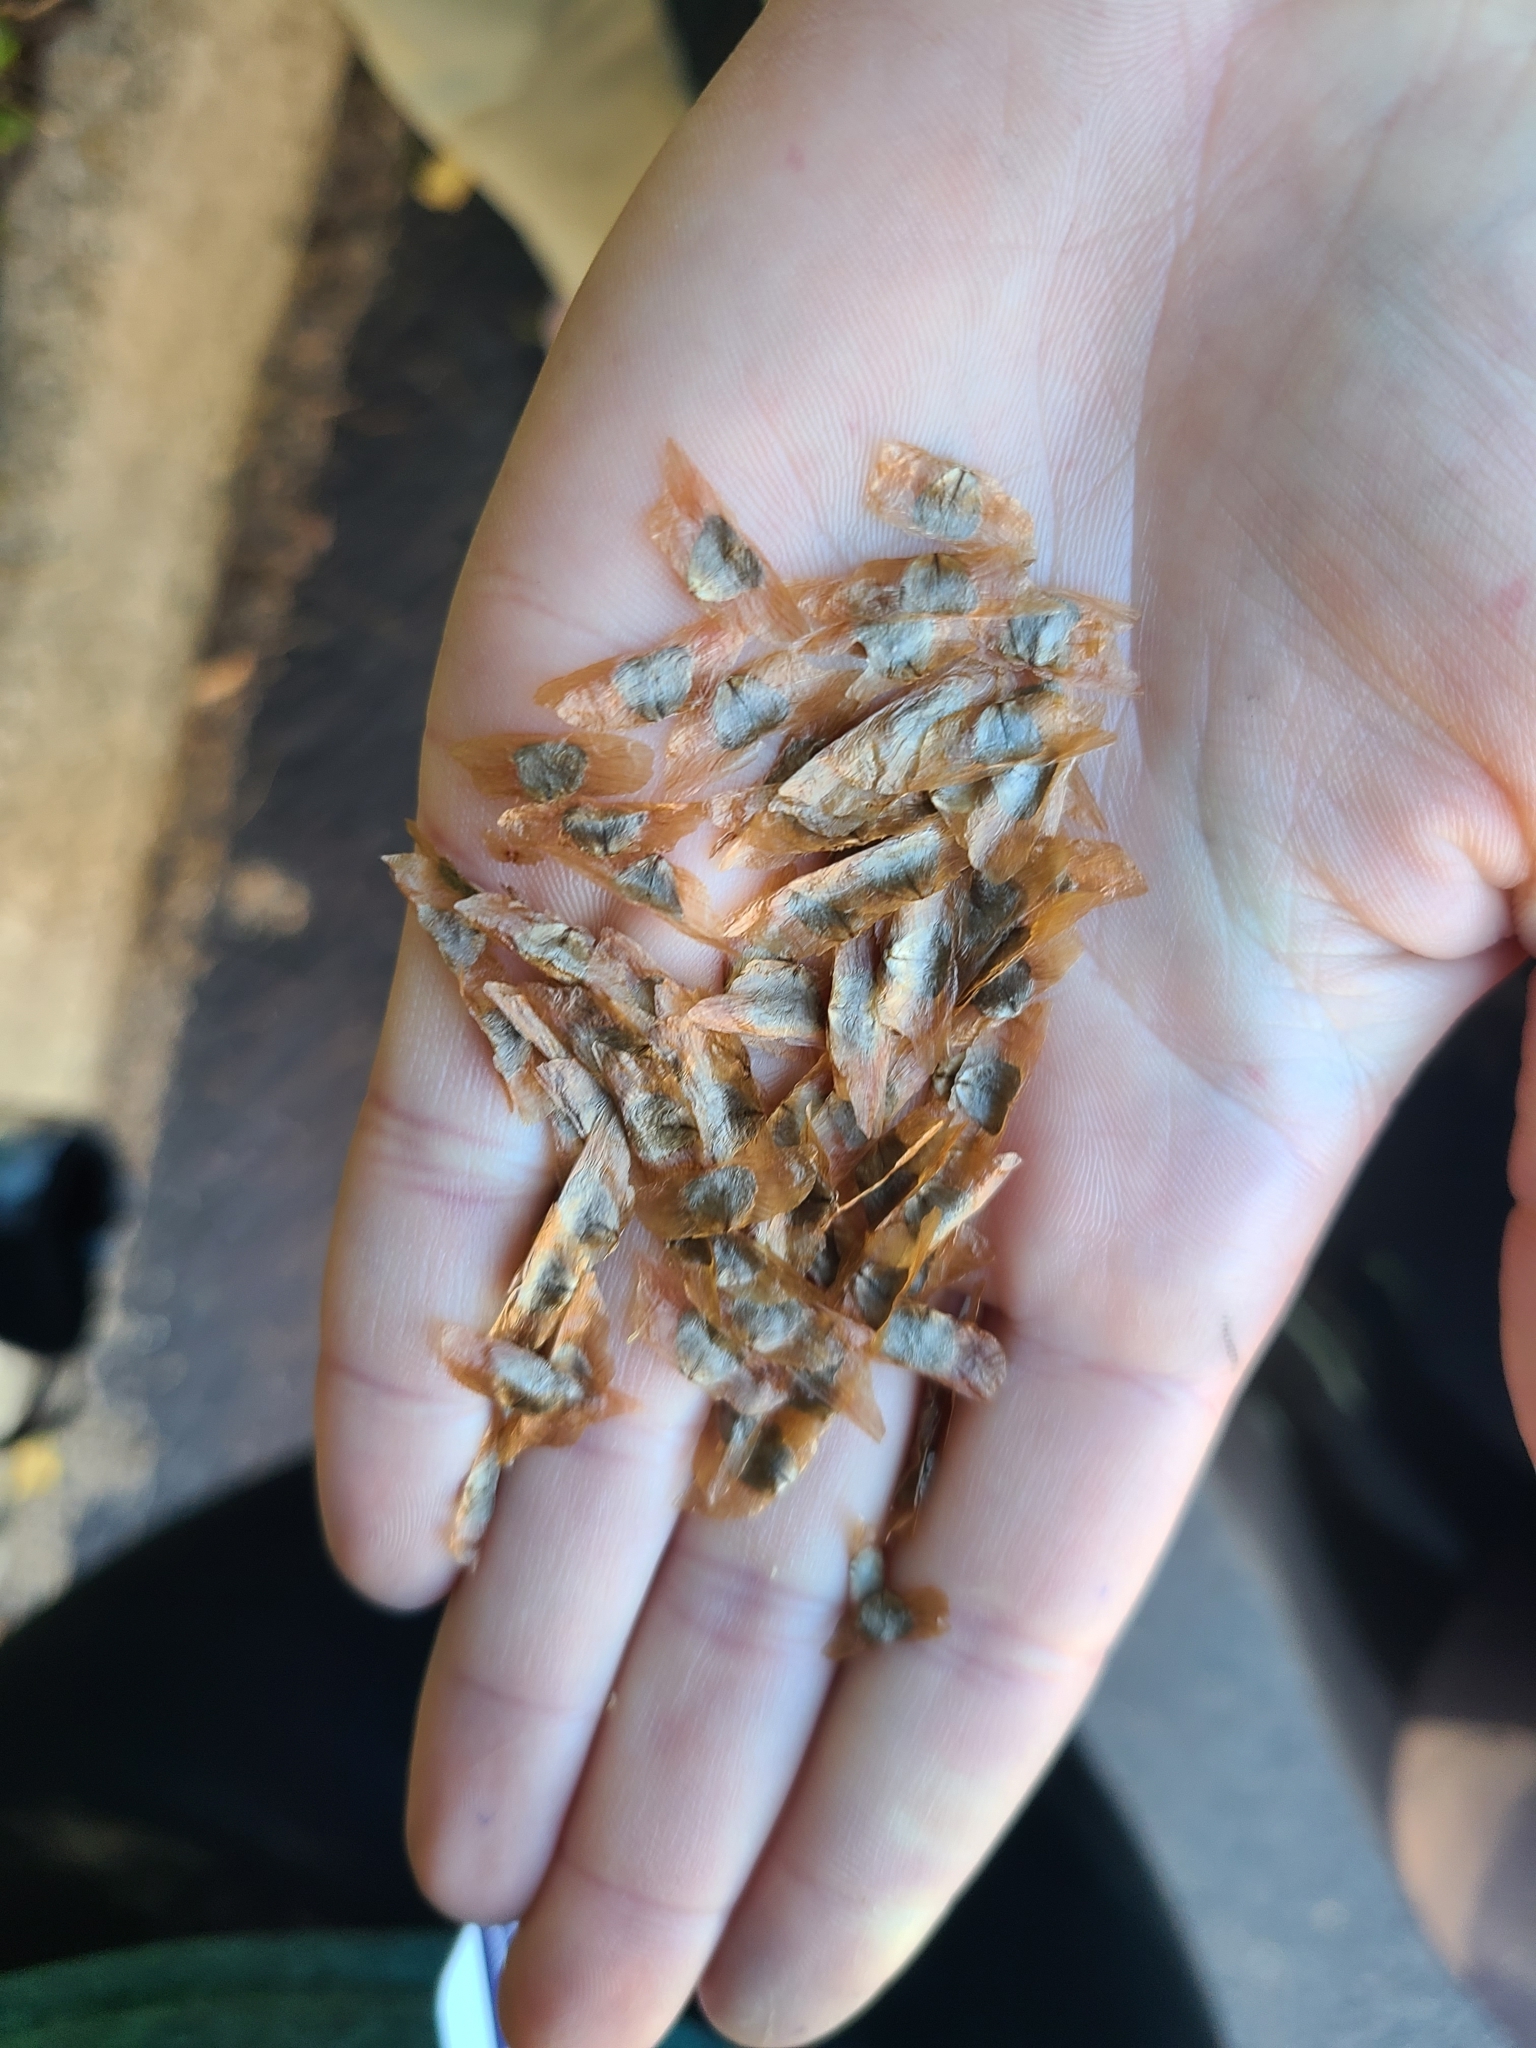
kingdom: Plantae
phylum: Tracheophyta
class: Magnoliopsida
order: Lamiales
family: Bignoniaceae
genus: Campsis
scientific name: Campsis radicans
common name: Trumpet-creeper
